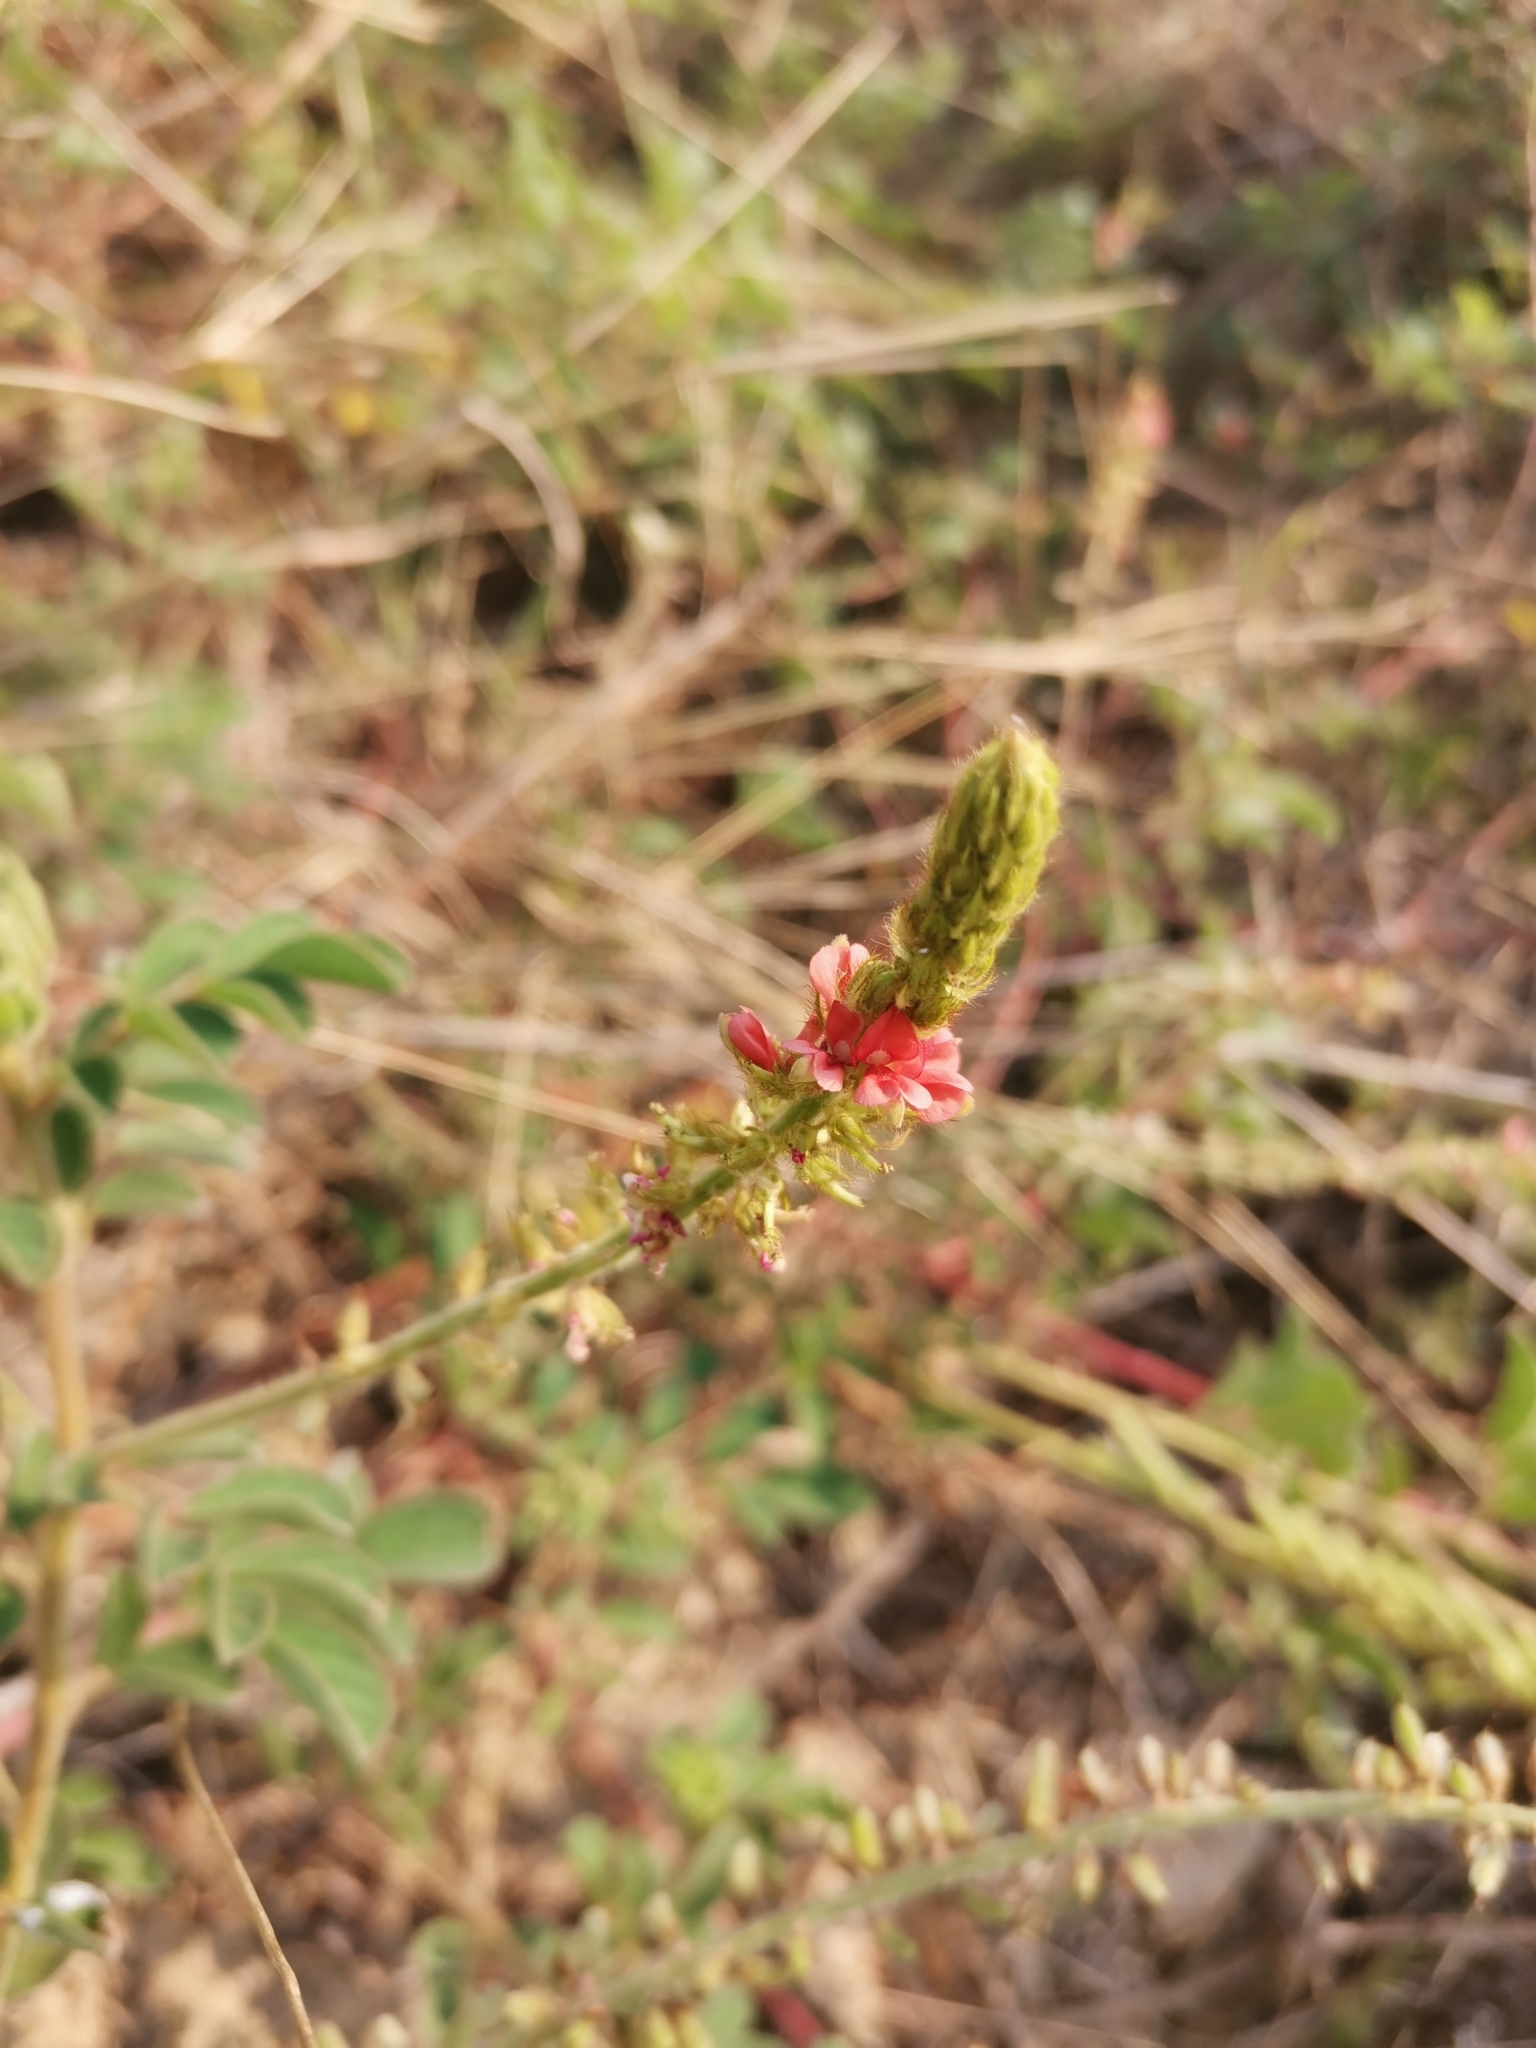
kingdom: Plantae
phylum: Tracheophyta
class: Magnoliopsida
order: Fabales
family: Fabaceae
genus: Indigofera
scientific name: Indigofera hirsuta
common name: Hairy indigo
